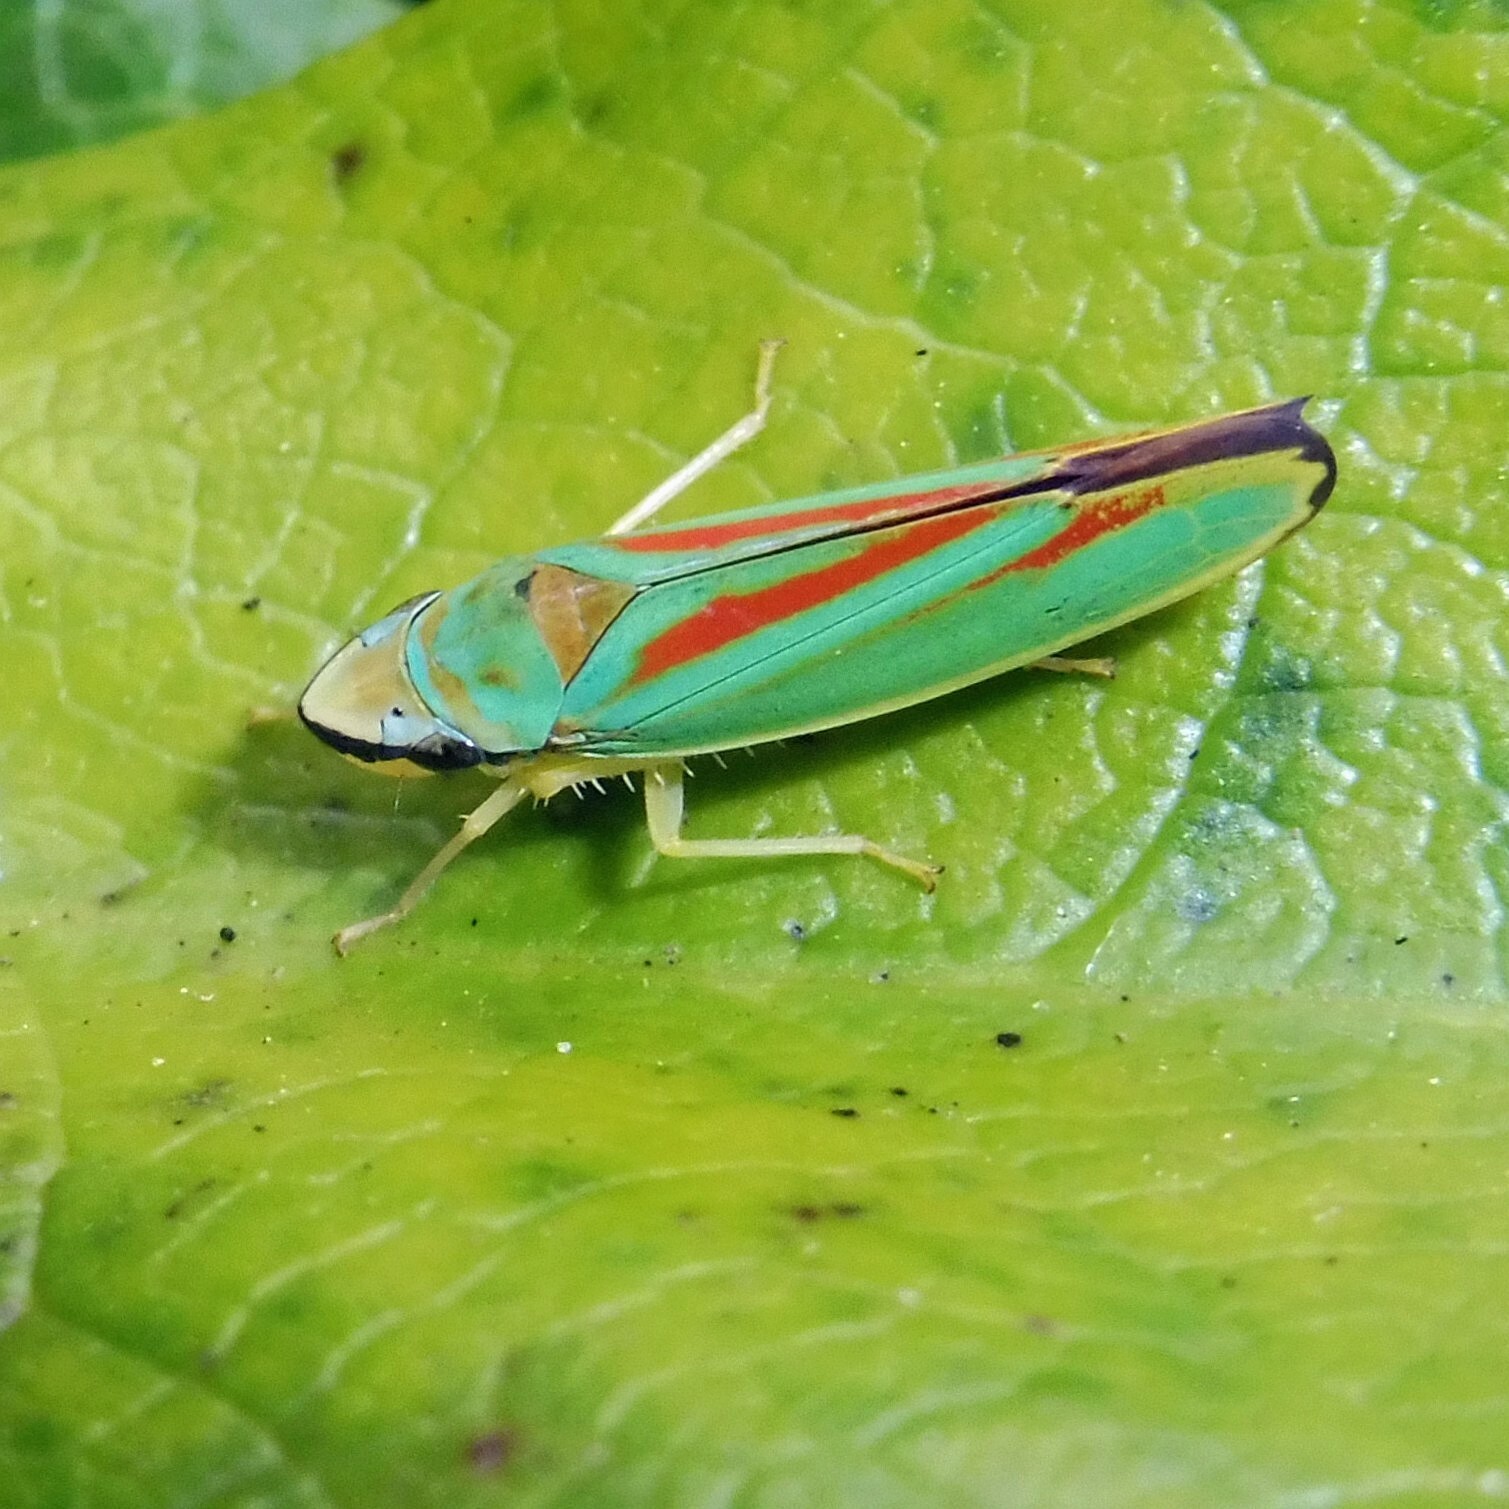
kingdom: Animalia
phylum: Arthropoda
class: Insecta
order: Hemiptera
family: Cicadellidae
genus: Graphocephala
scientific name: Graphocephala fennahi
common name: Rhododendron leafhopper
